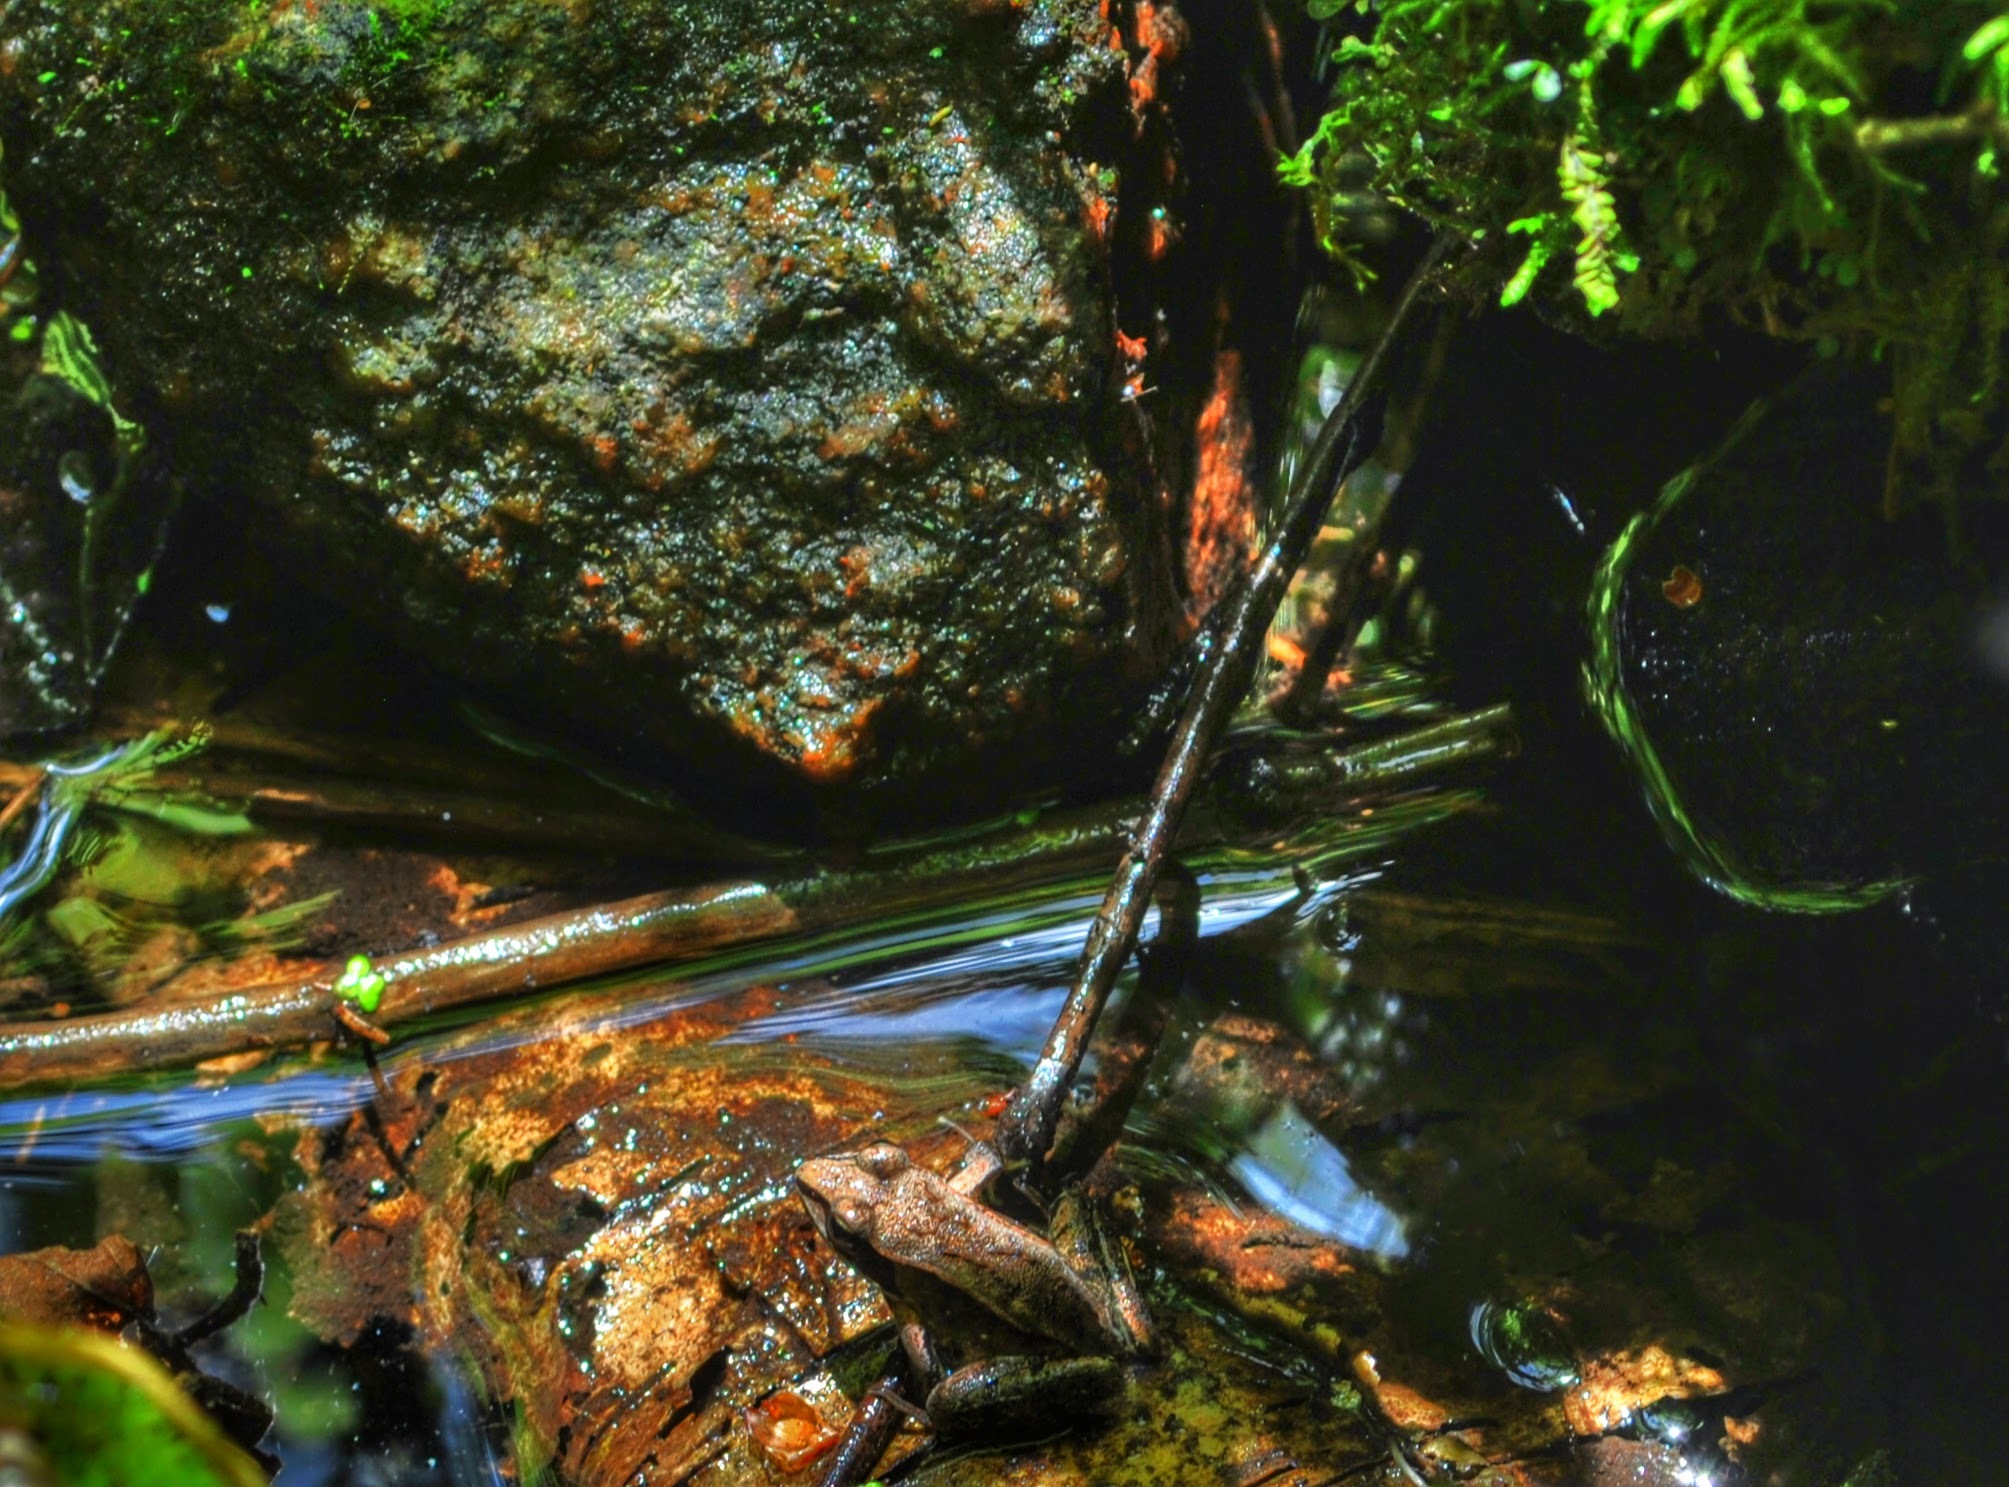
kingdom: Animalia
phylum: Chordata
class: Amphibia
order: Anura
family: Ranidae
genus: Lithobates
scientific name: Lithobates sylvaticus
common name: Wood frog
